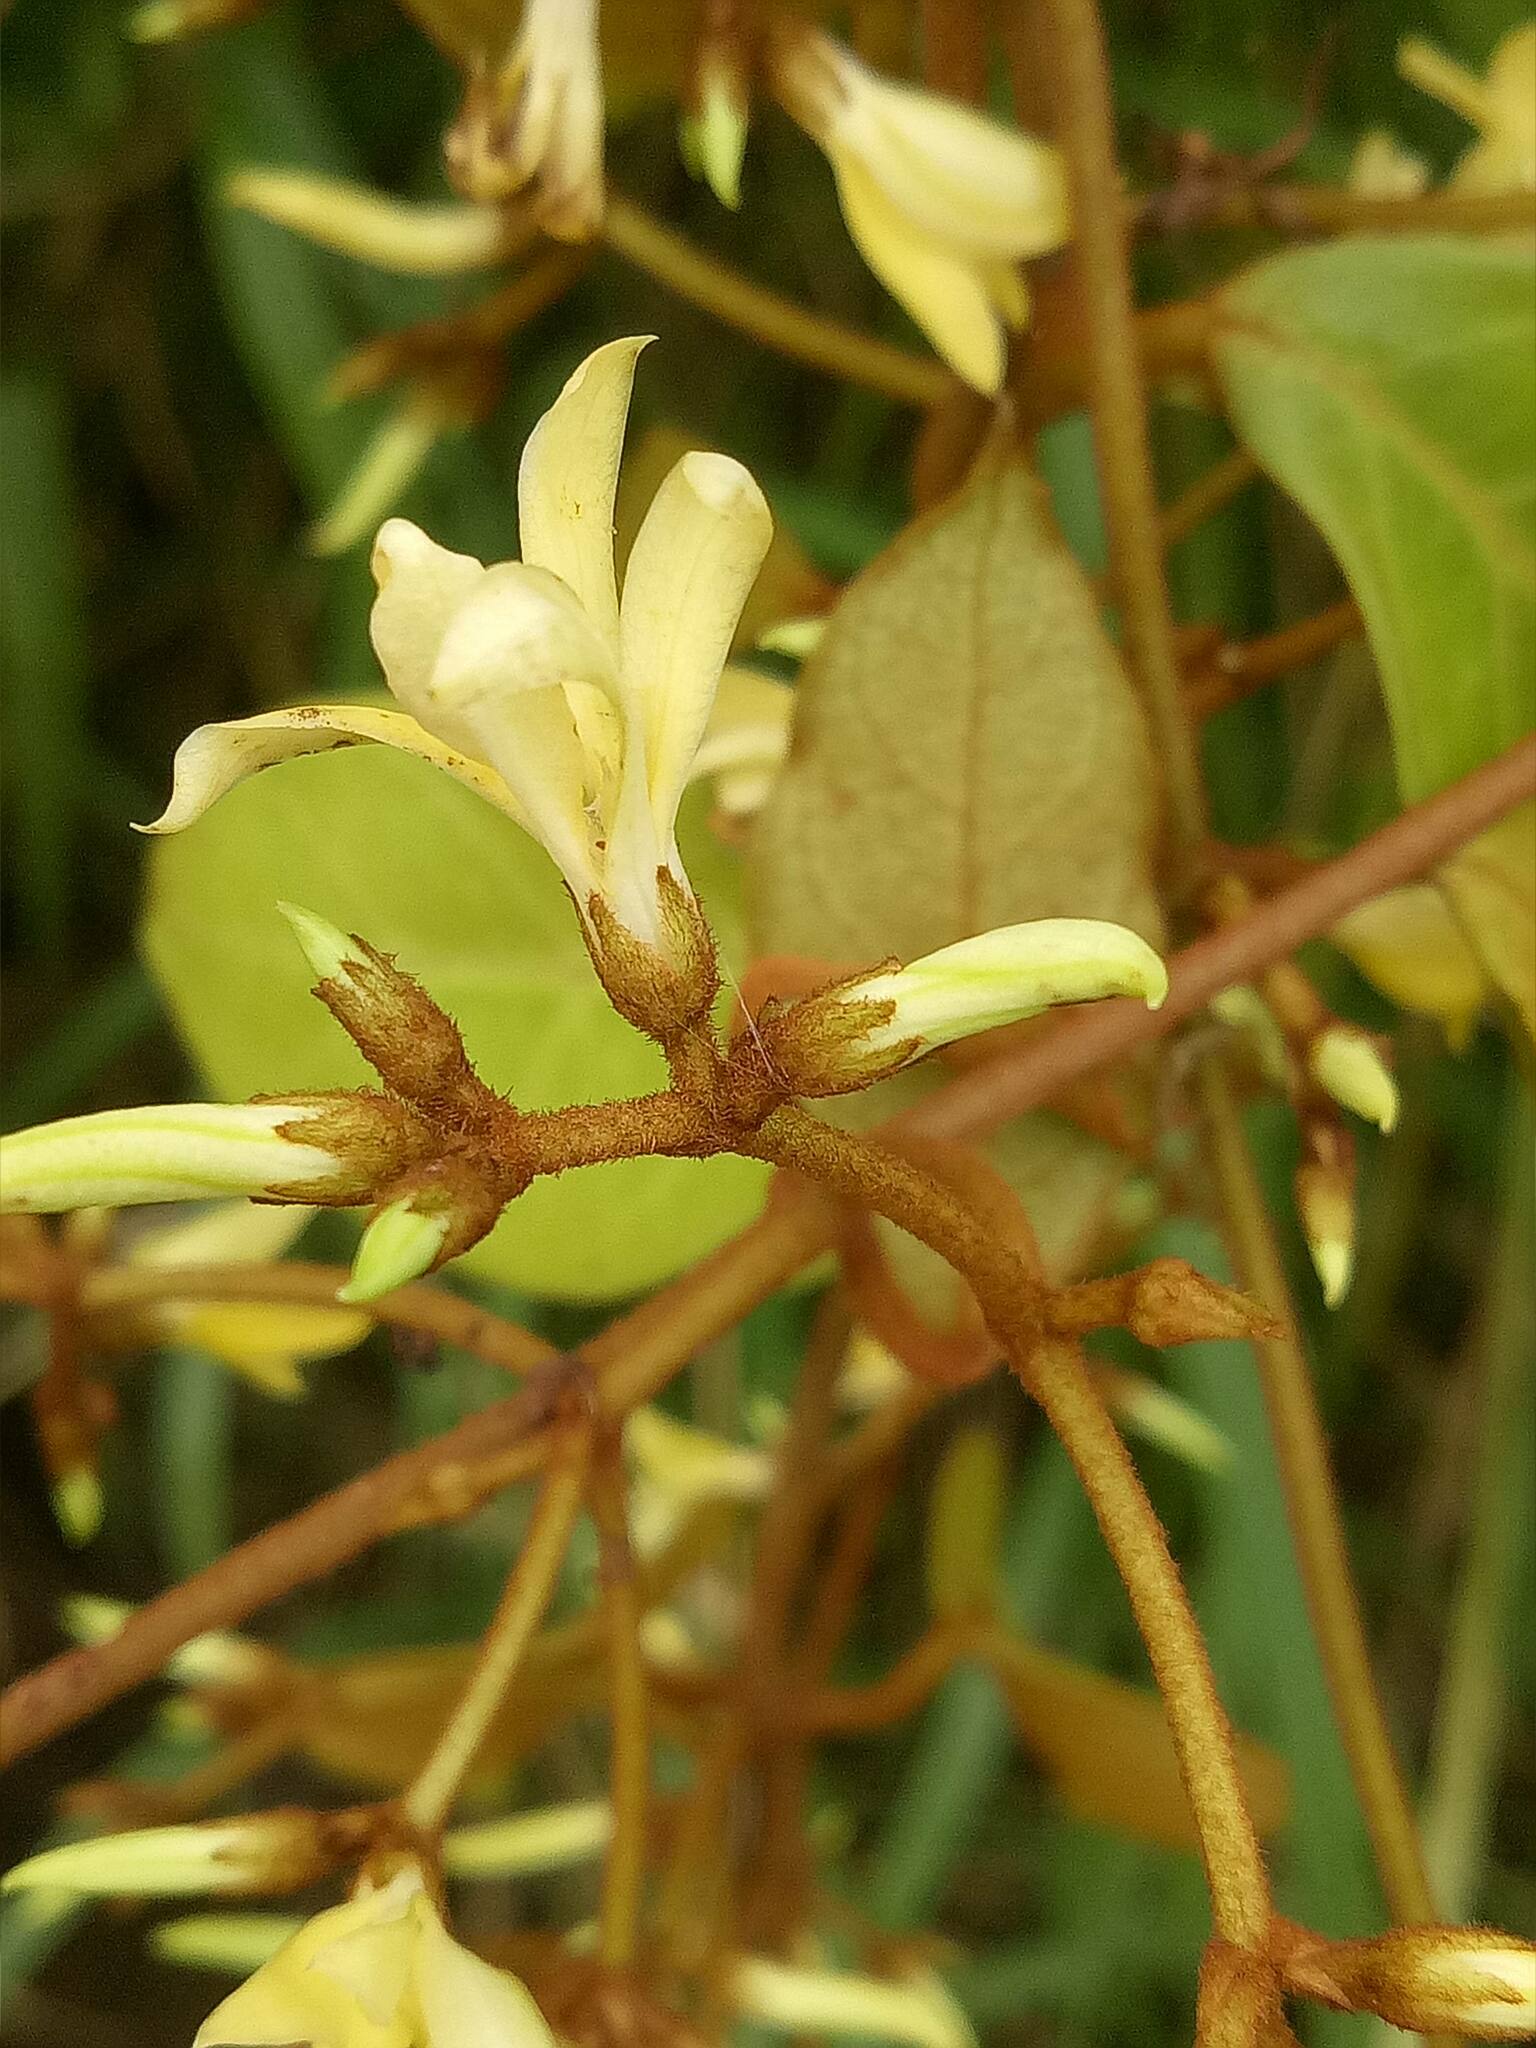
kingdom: Plantae
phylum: Tracheophyta
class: Magnoliopsida
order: Gentianales
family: Apocynaceae
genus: Toxocarpus
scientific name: Toxocarpus villosus
